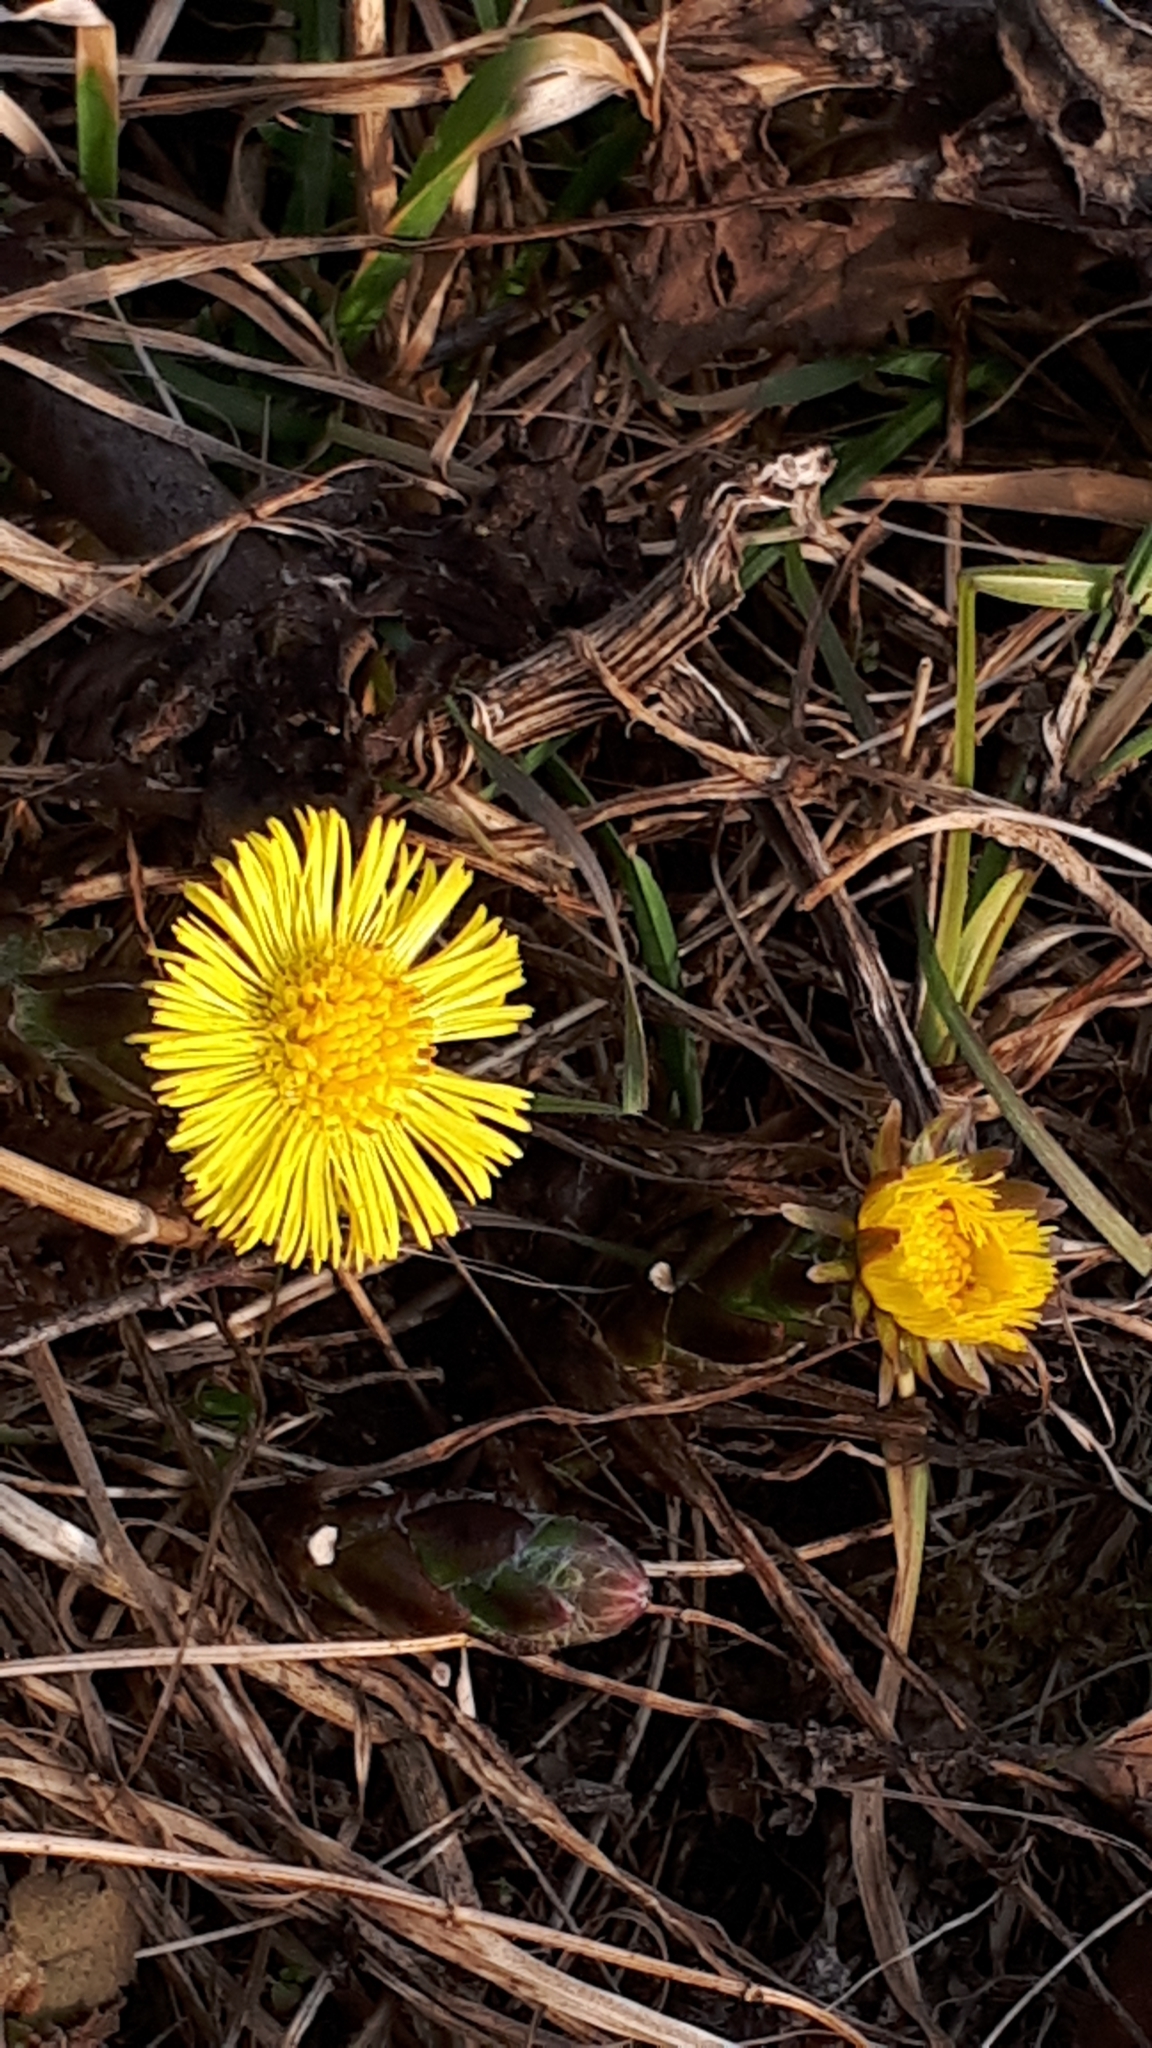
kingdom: Plantae
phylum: Tracheophyta
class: Magnoliopsida
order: Asterales
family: Asteraceae
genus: Tussilago
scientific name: Tussilago farfara
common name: Coltsfoot
